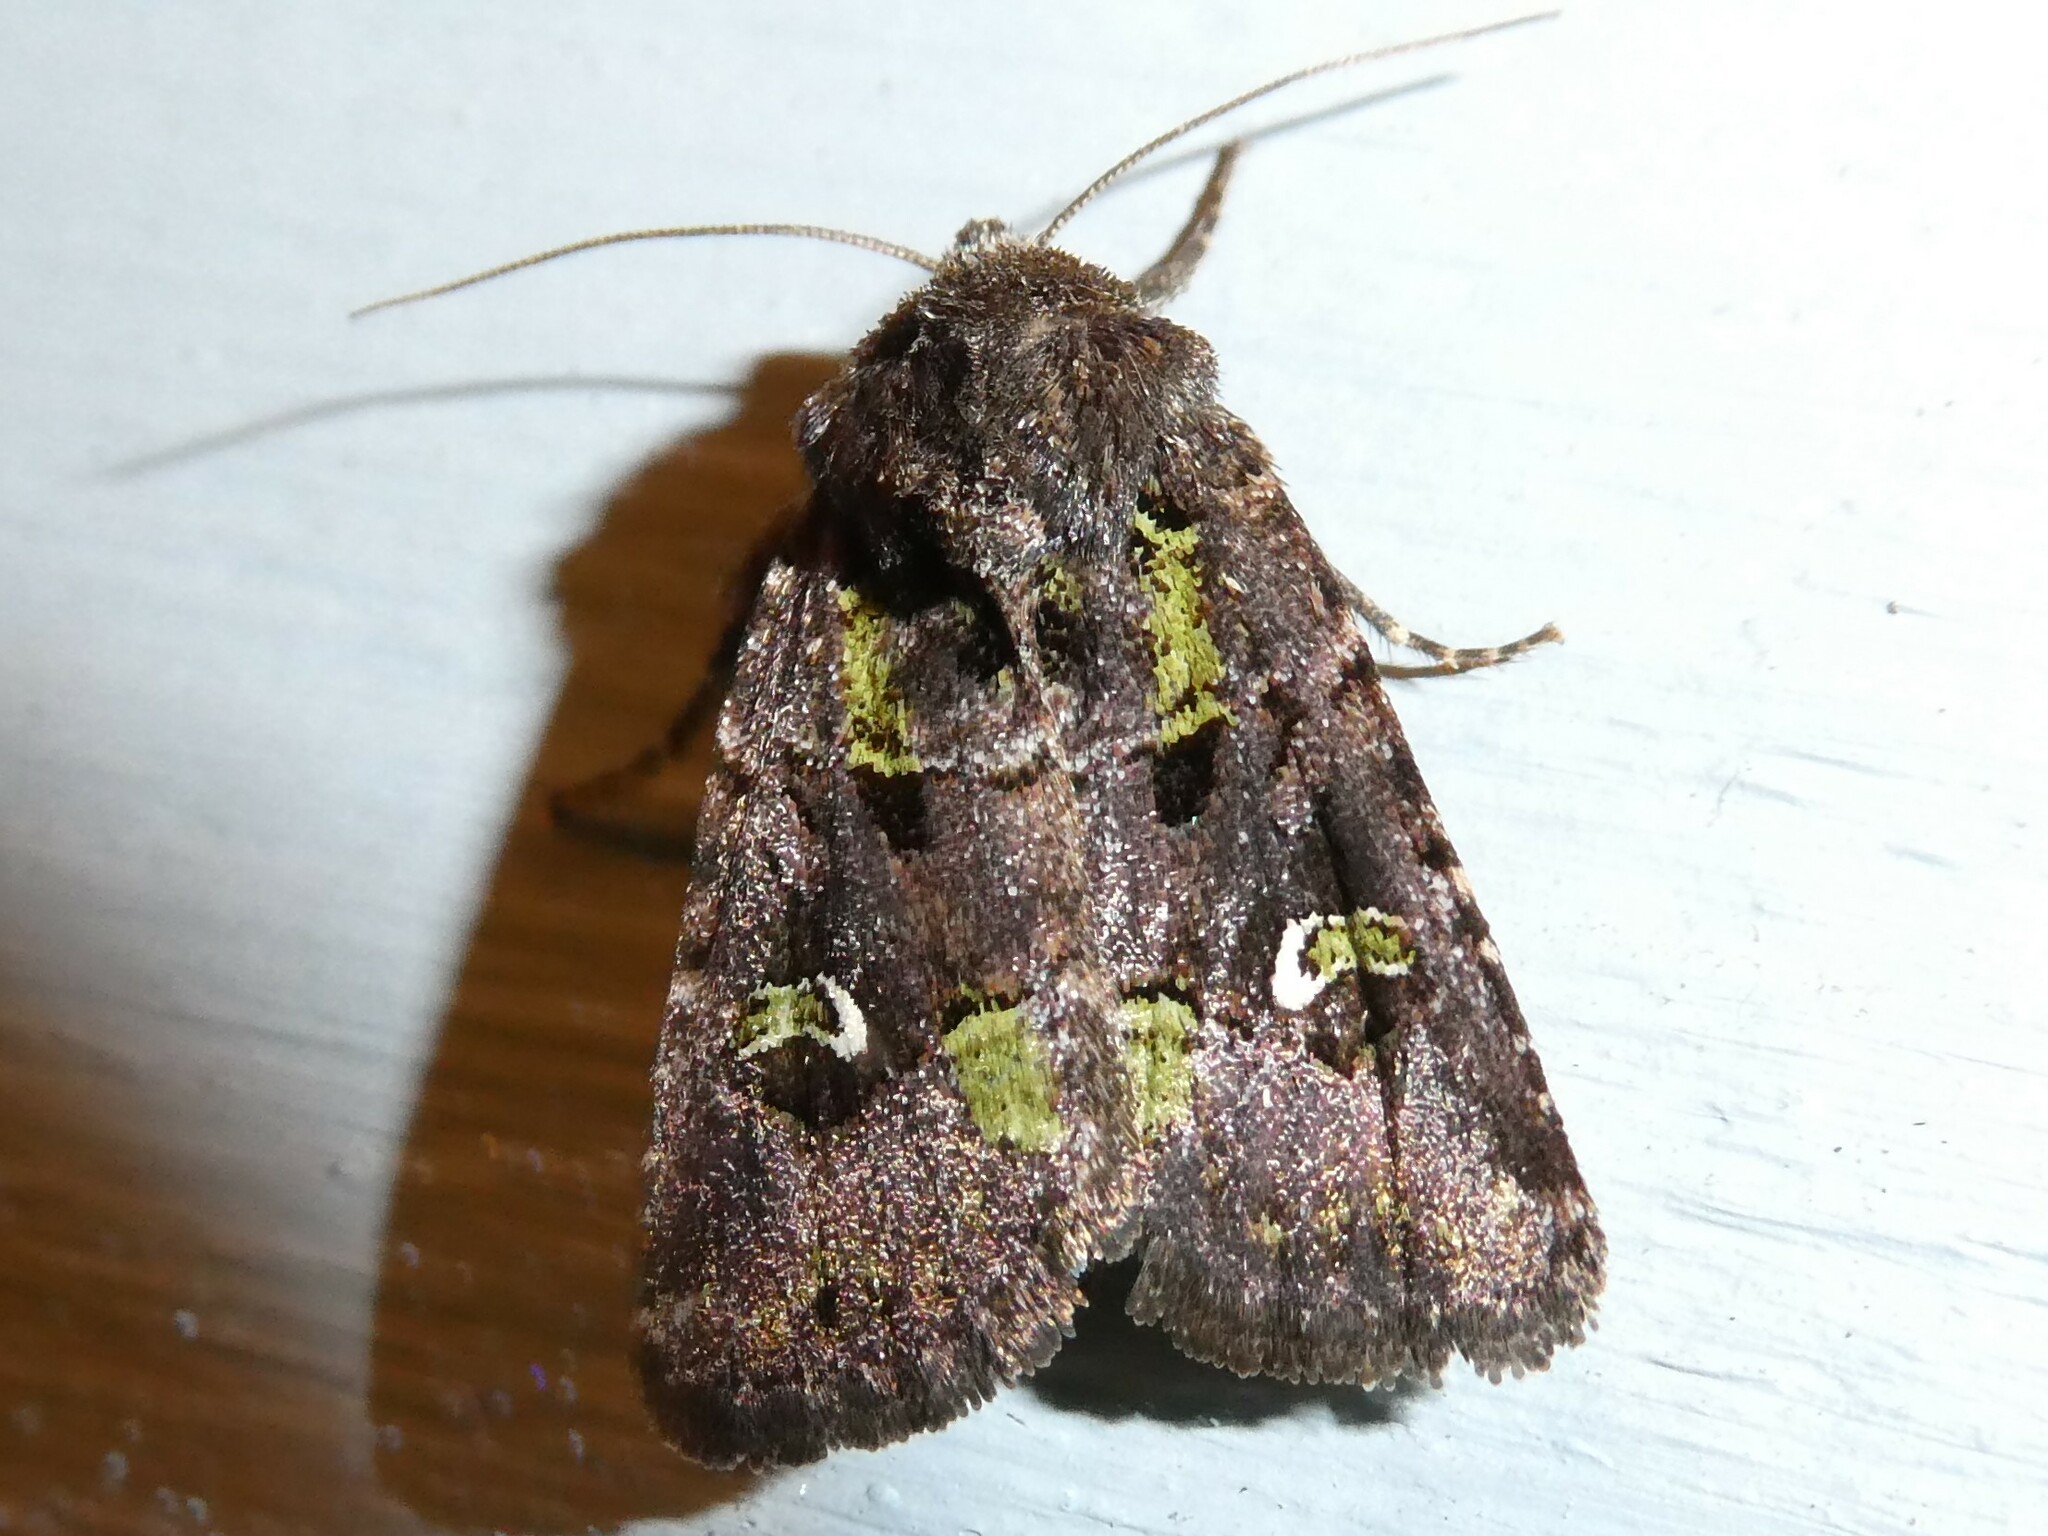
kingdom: Animalia
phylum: Arthropoda
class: Insecta
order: Lepidoptera
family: Noctuidae
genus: Lacinipolia
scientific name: Lacinipolia renigera
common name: Kidney-spotted minor
